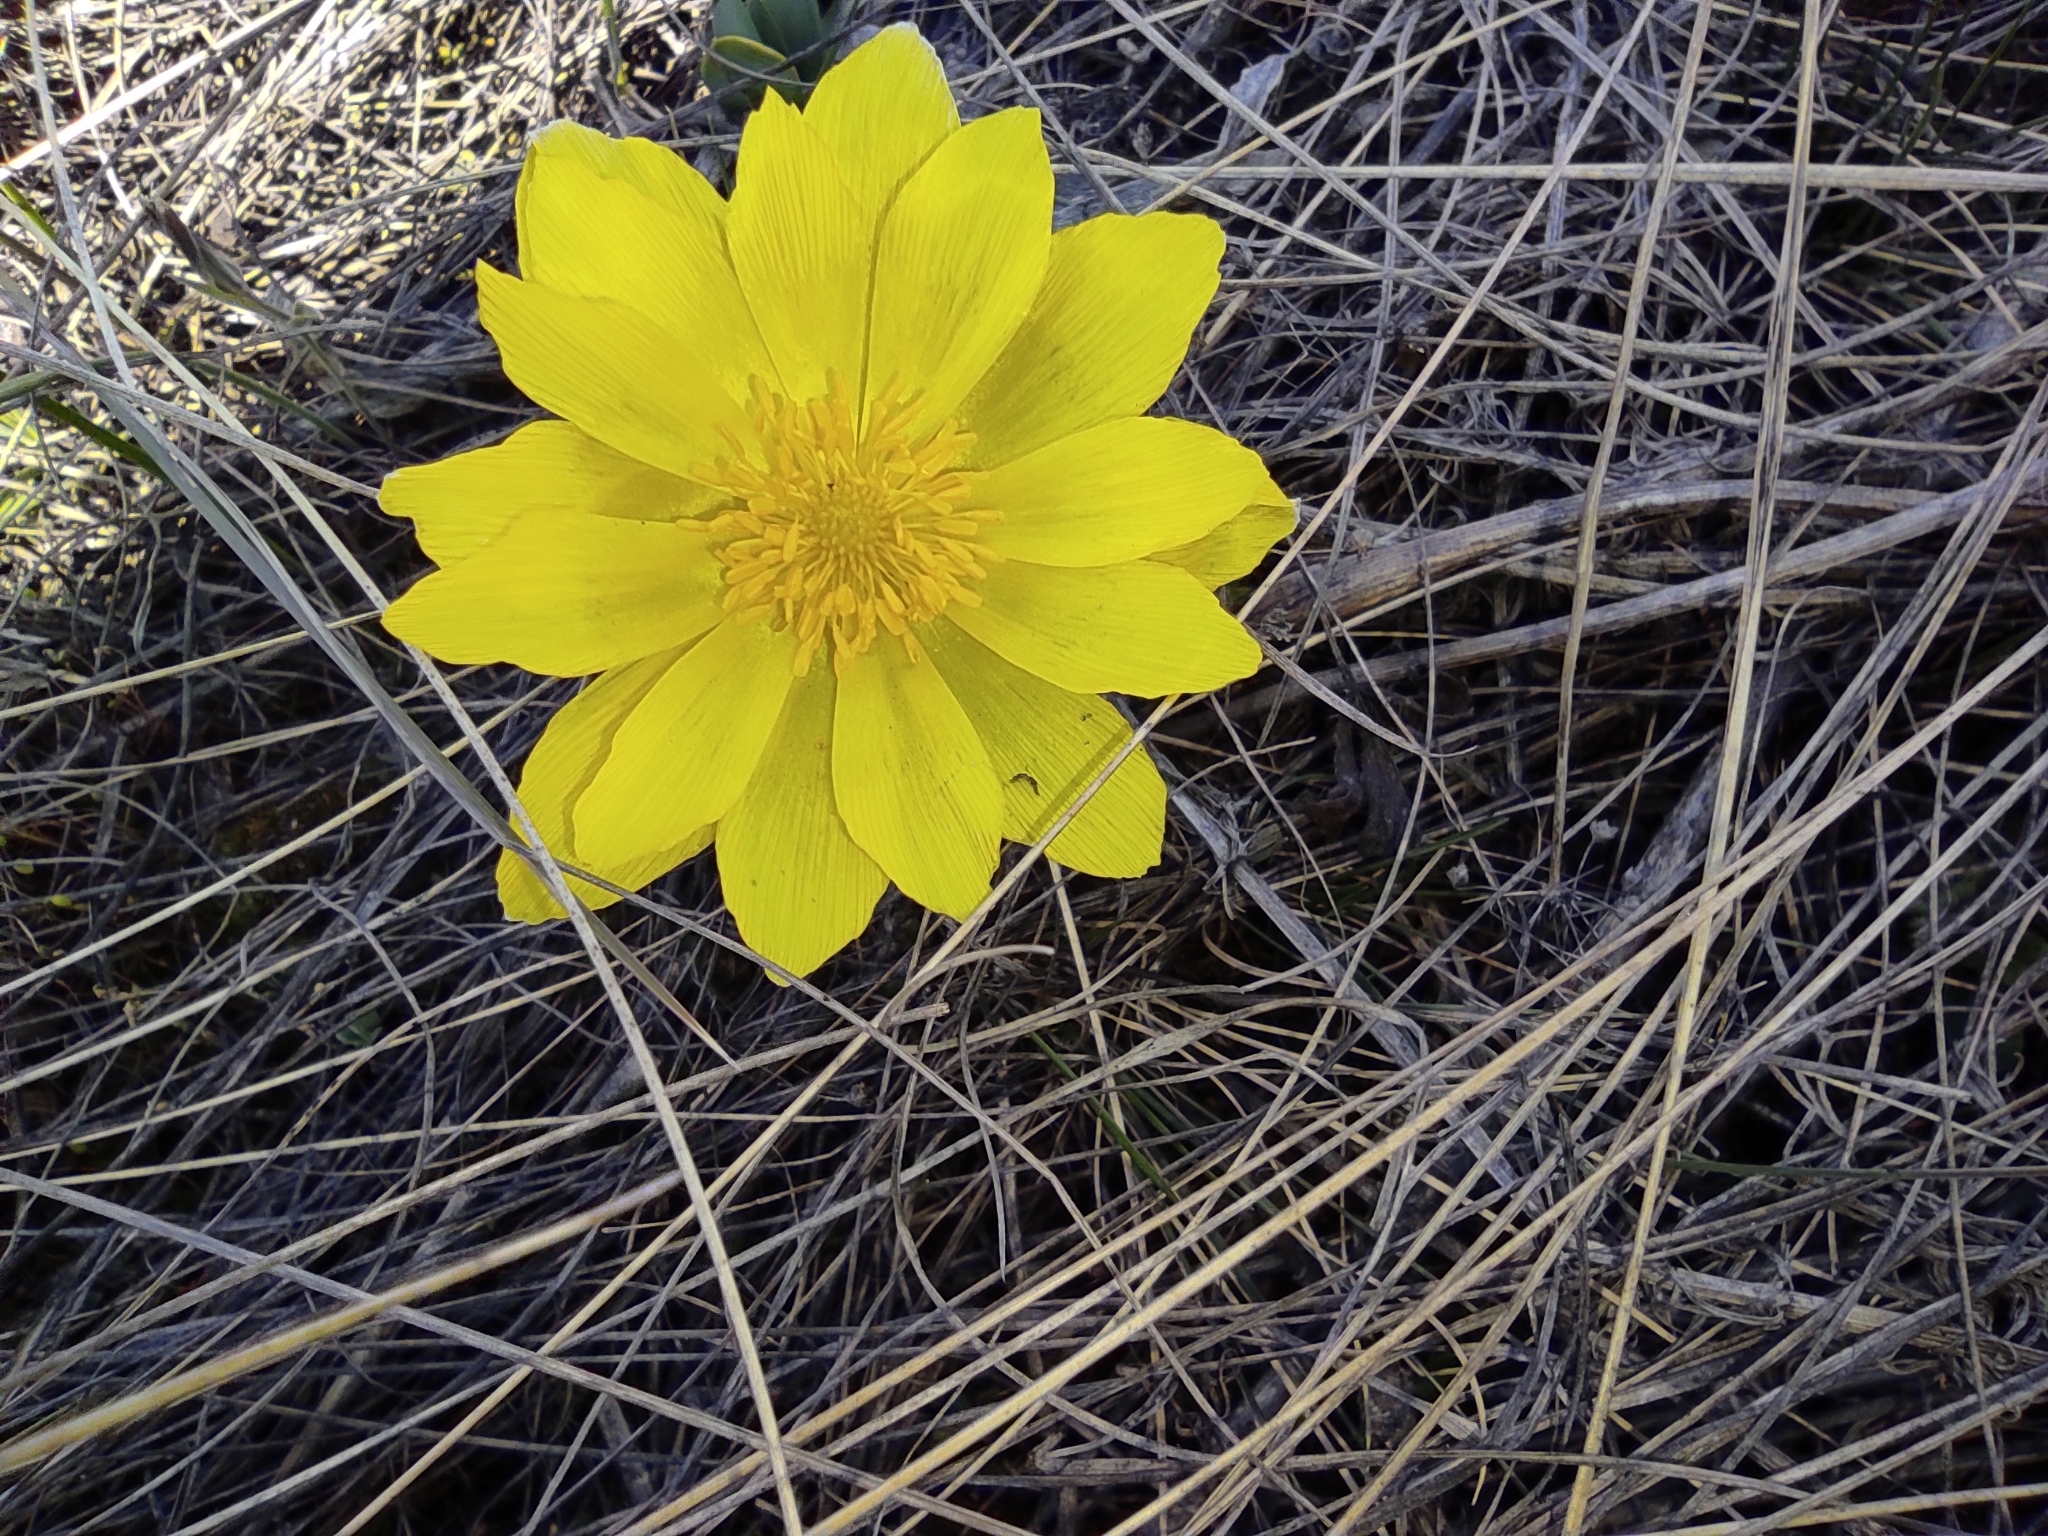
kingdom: Plantae
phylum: Tracheophyta
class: Magnoliopsida
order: Ranunculales
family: Ranunculaceae
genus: Adonis
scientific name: Adonis vernalis
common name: Yellow pheasants-eye
